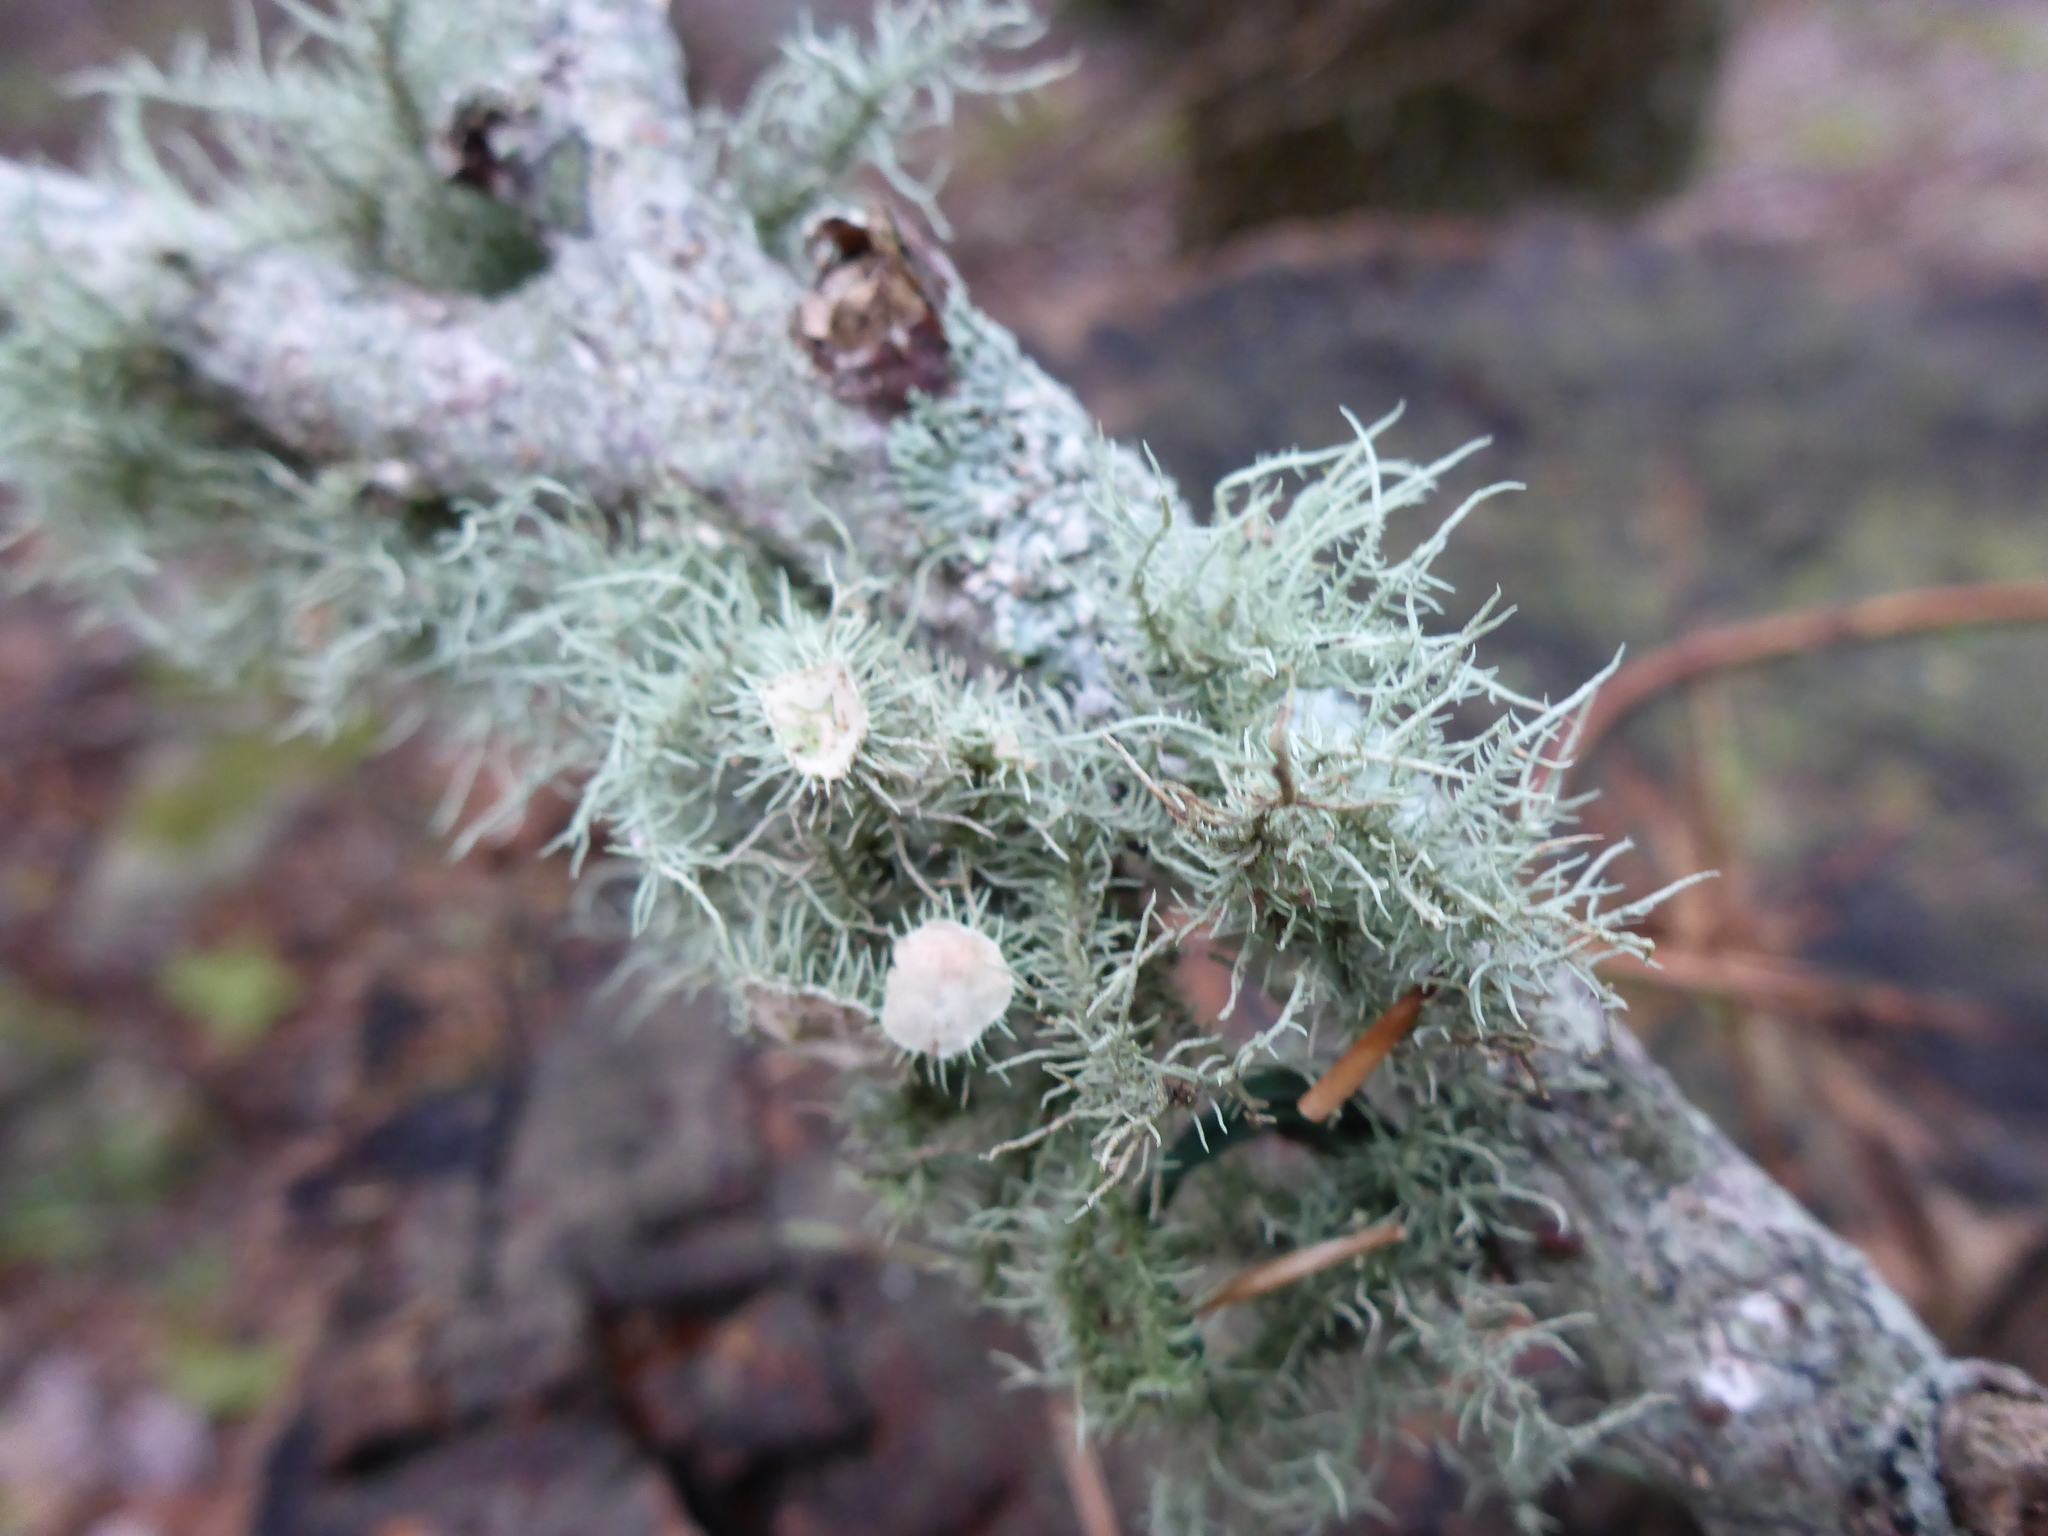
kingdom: Fungi
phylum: Ascomycota
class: Lecanoromycetes
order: Lecanorales
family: Parmeliaceae
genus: Usnea
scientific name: Usnea strigosa
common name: Bushy beard lichen
